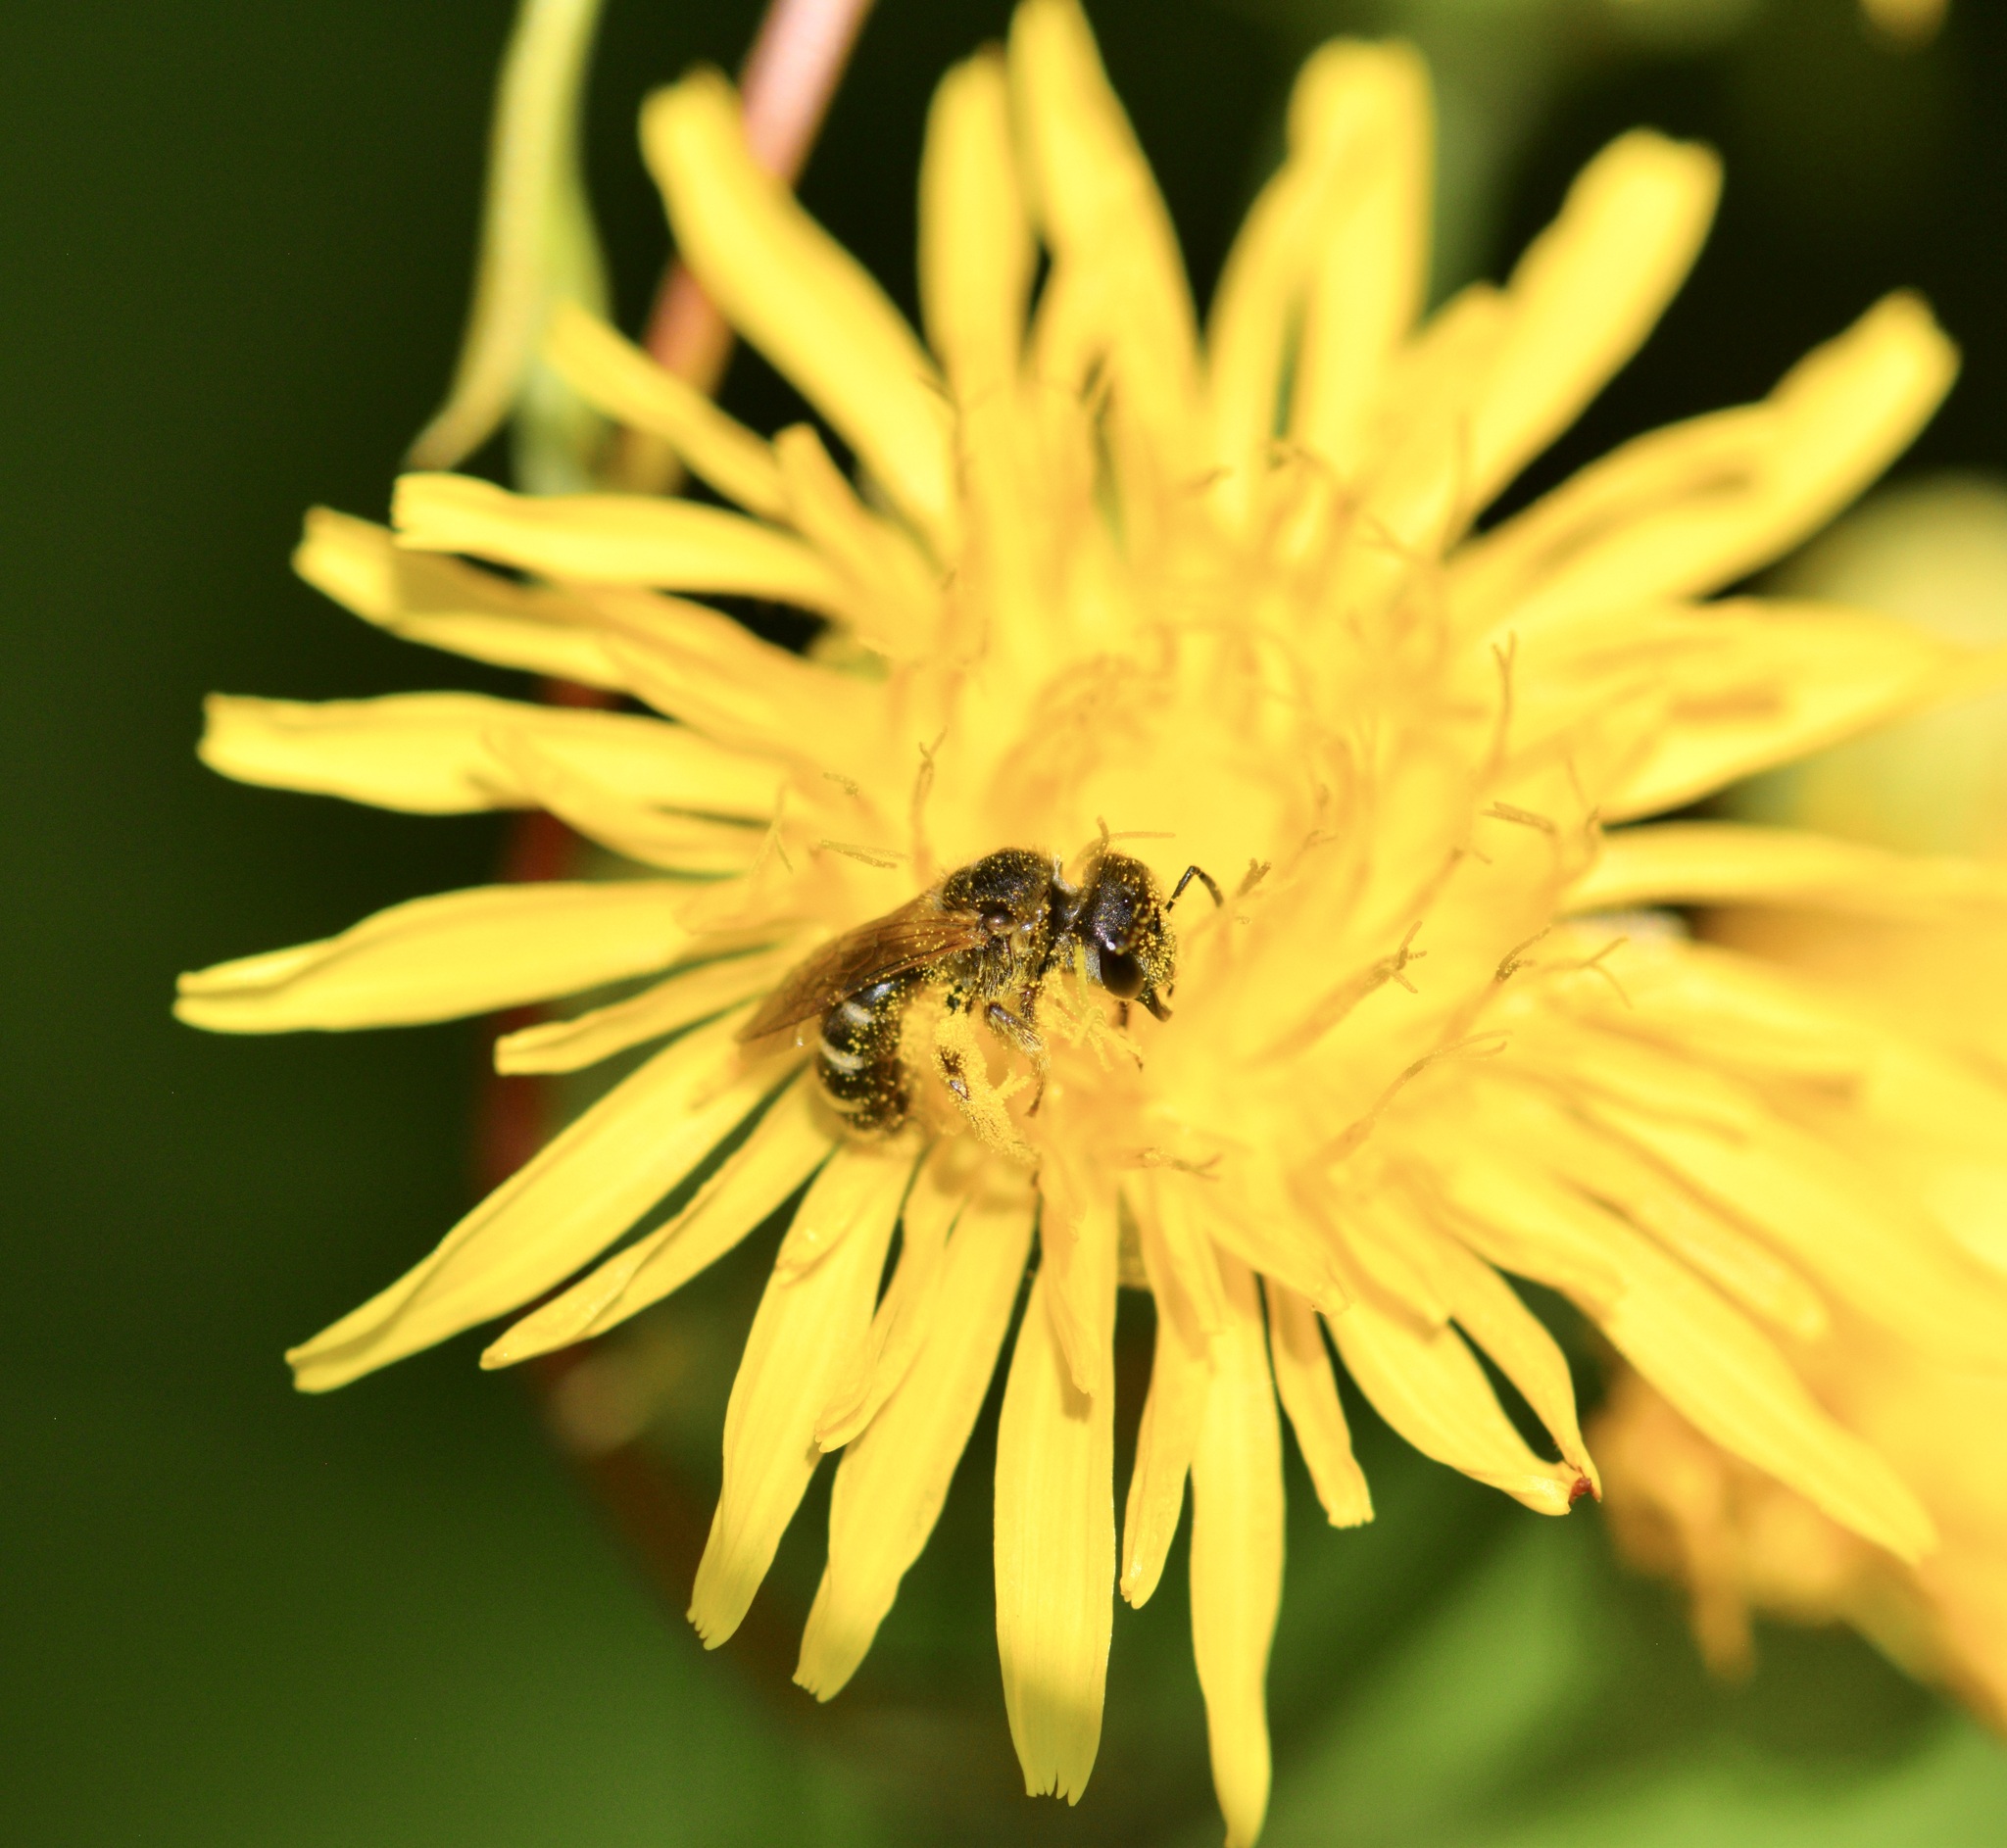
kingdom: Animalia
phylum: Arthropoda
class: Insecta
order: Hymenoptera
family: Halictidae
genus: Halictus
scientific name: Halictus ligatus
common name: Ligated furrow bee
